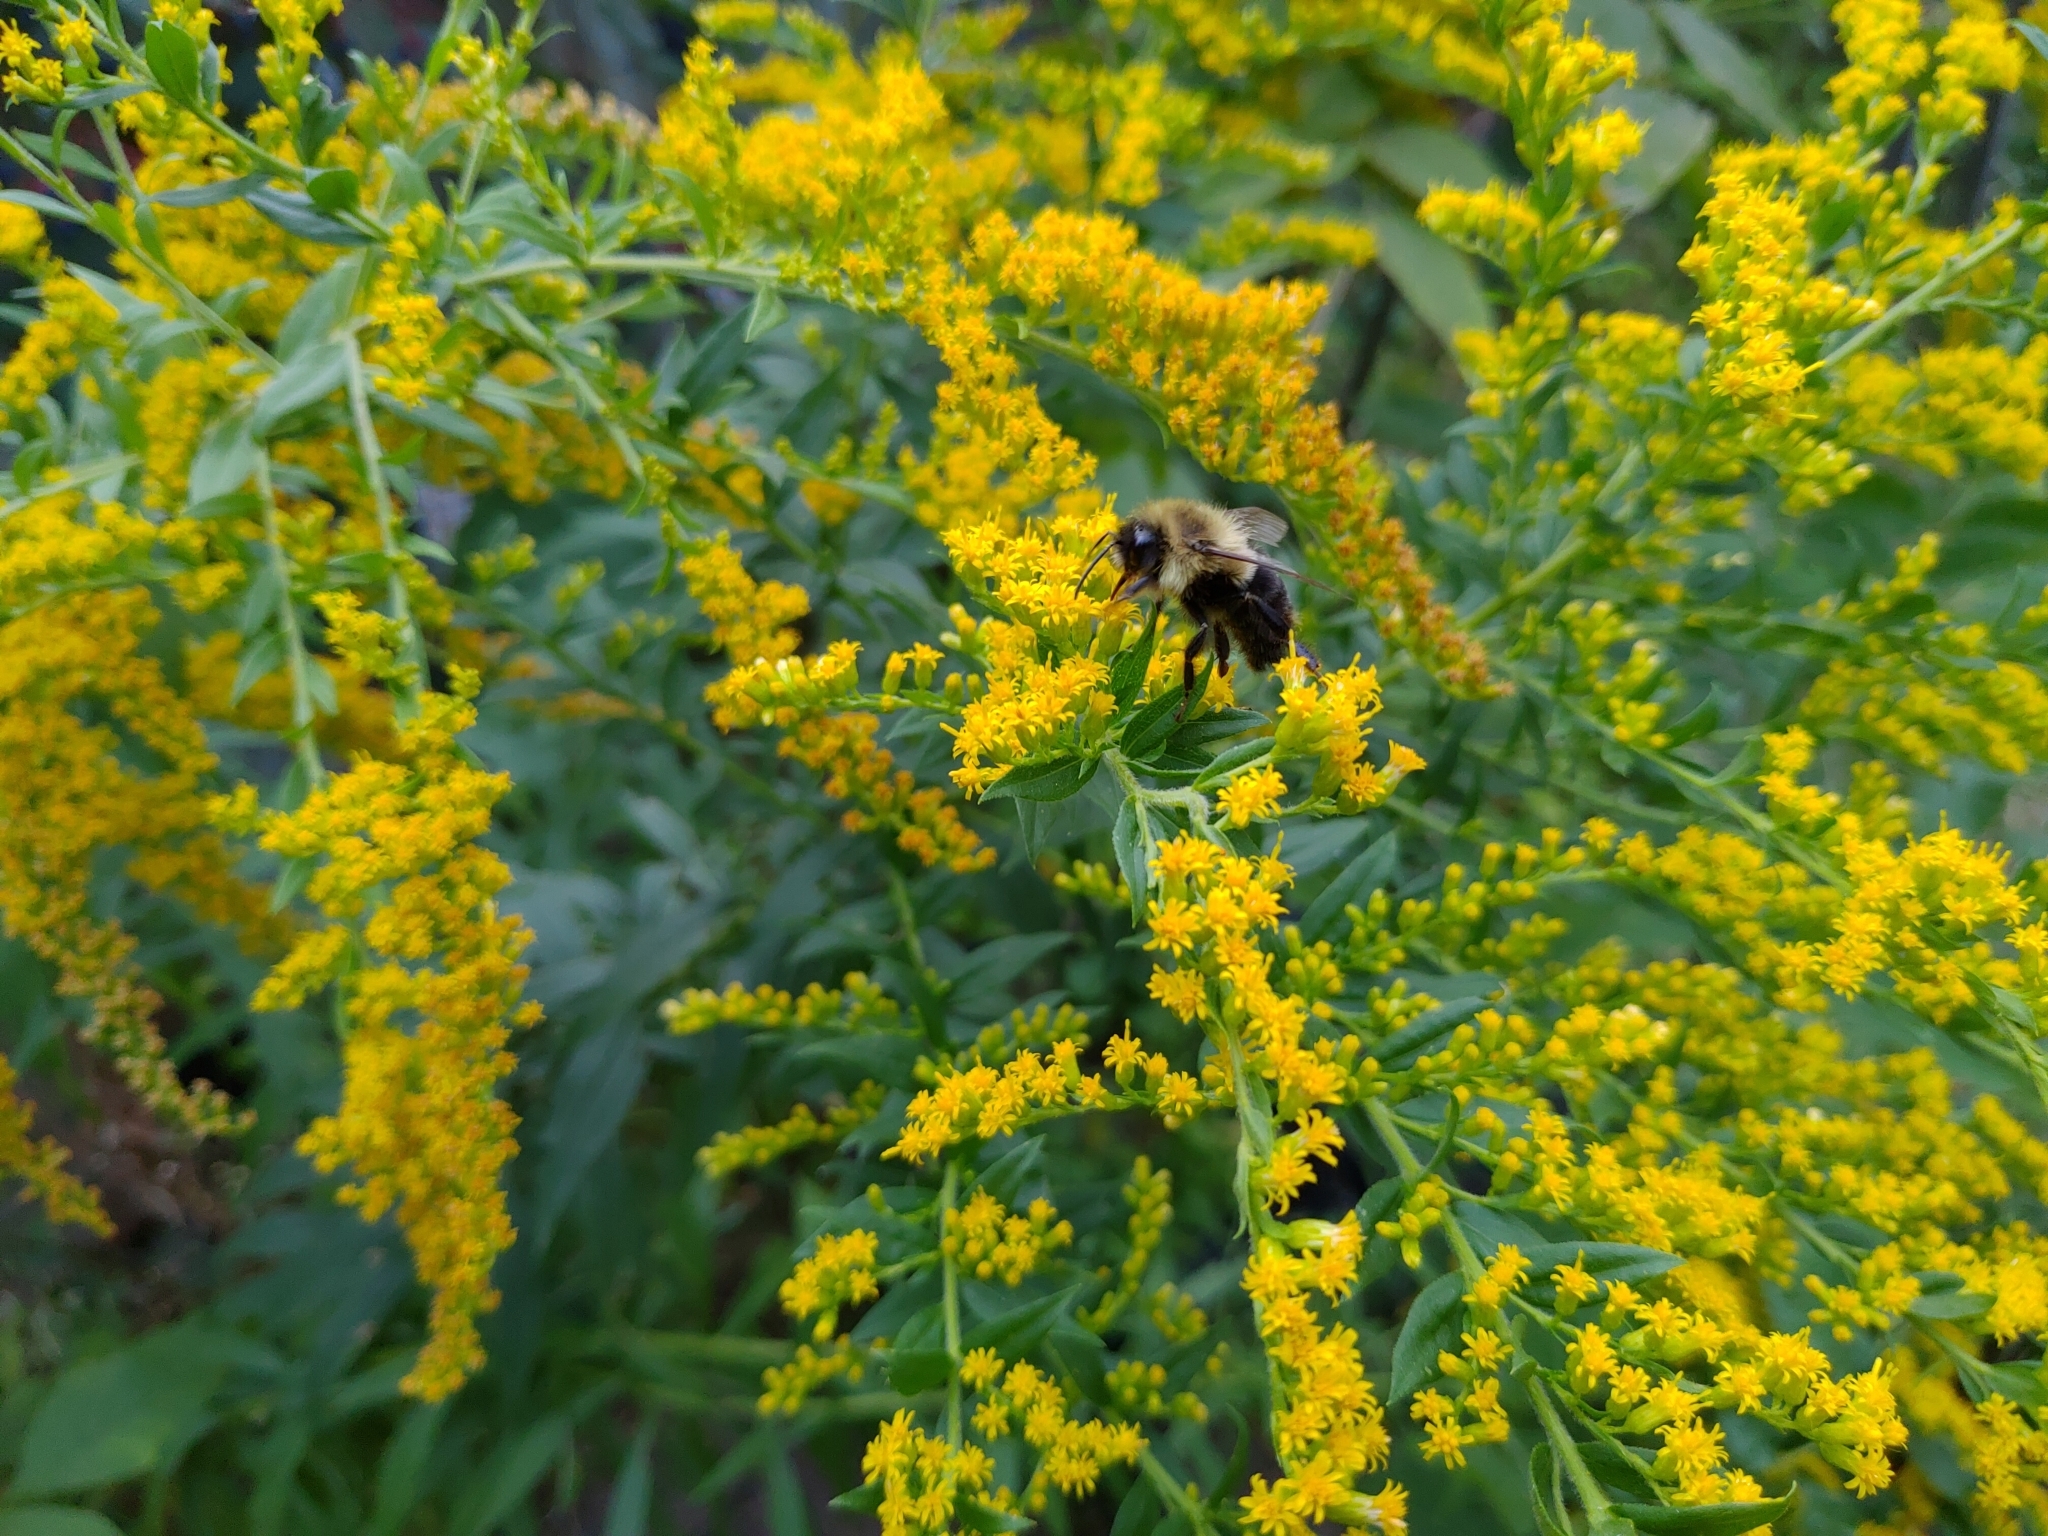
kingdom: Animalia
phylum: Arthropoda
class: Insecta
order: Hymenoptera
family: Apidae
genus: Bombus
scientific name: Bombus impatiens
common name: Common eastern bumble bee
